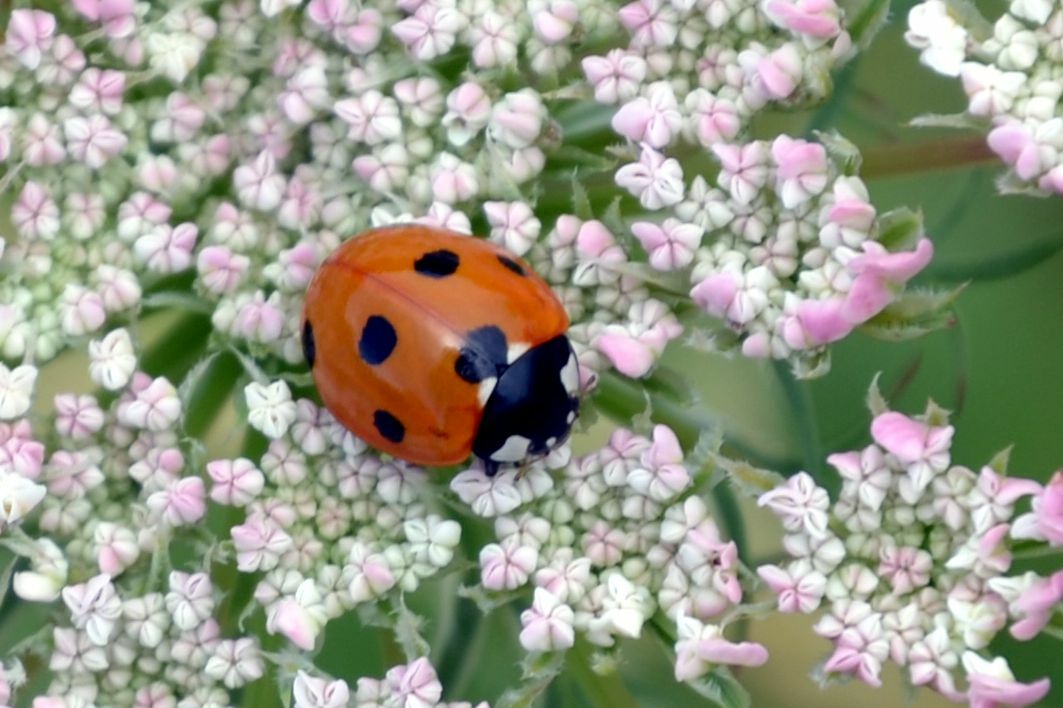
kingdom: Animalia
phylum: Arthropoda
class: Insecta
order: Coleoptera
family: Coccinellidae
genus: Coccinella
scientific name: Coccinella septempunctata
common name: Sevenspotted lady beetle
